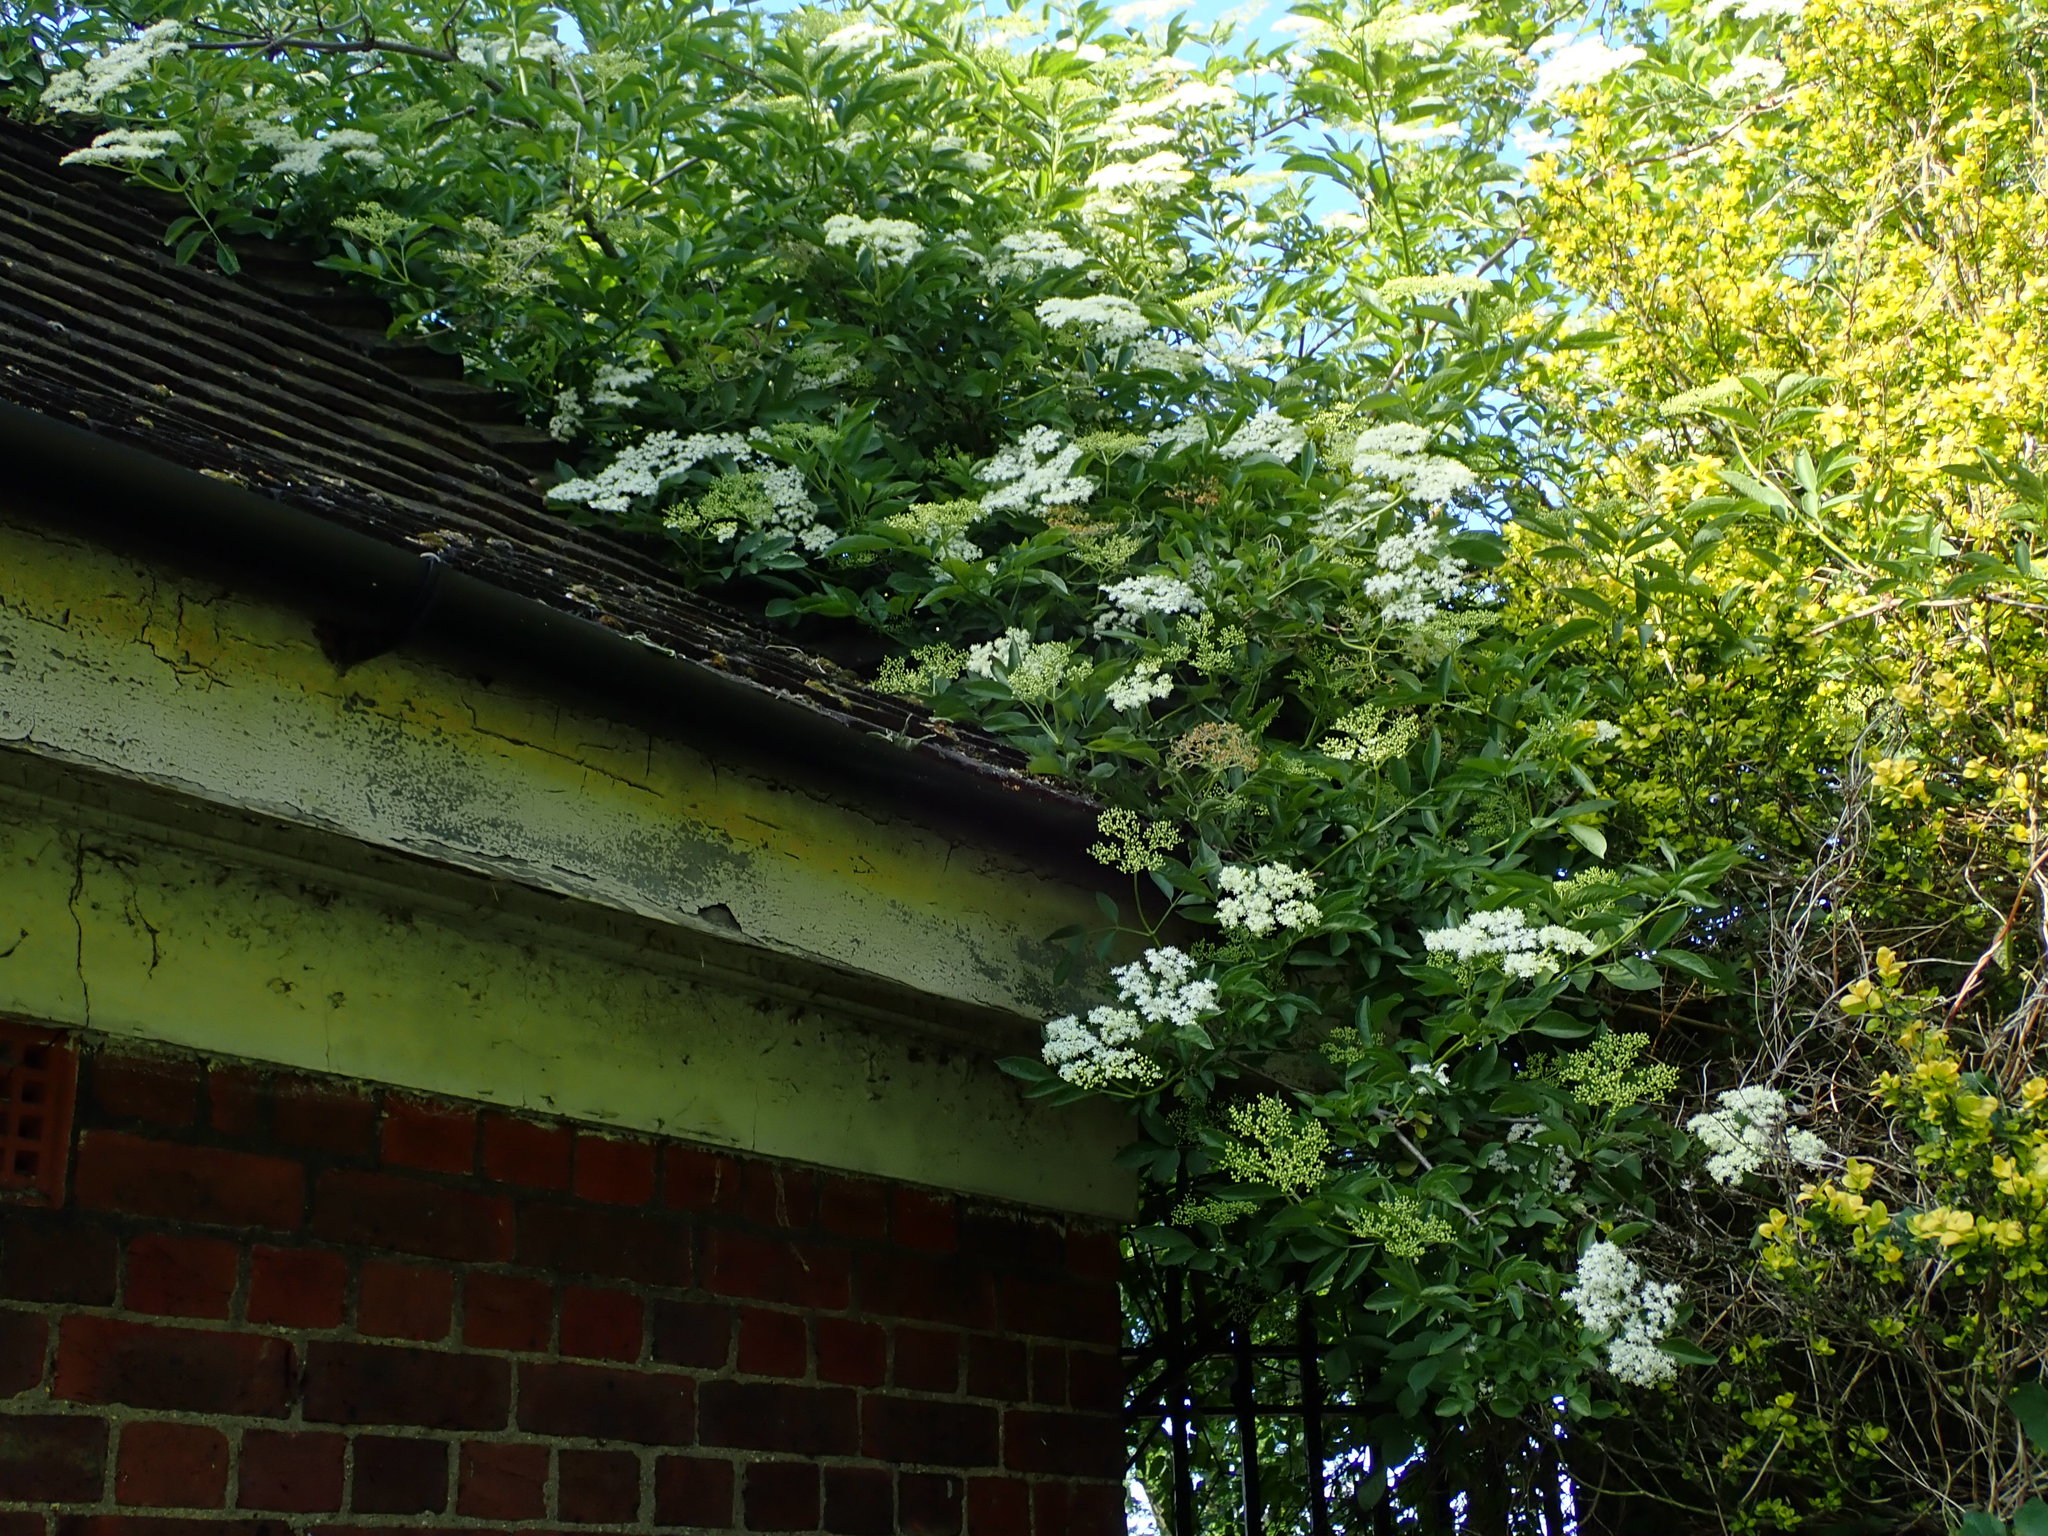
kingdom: Plantae
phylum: Tracheophyta
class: Magnoliopsida
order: Dipsacales
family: Viburnaceae
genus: Sambucus
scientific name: Sambucus nigra
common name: Elder
